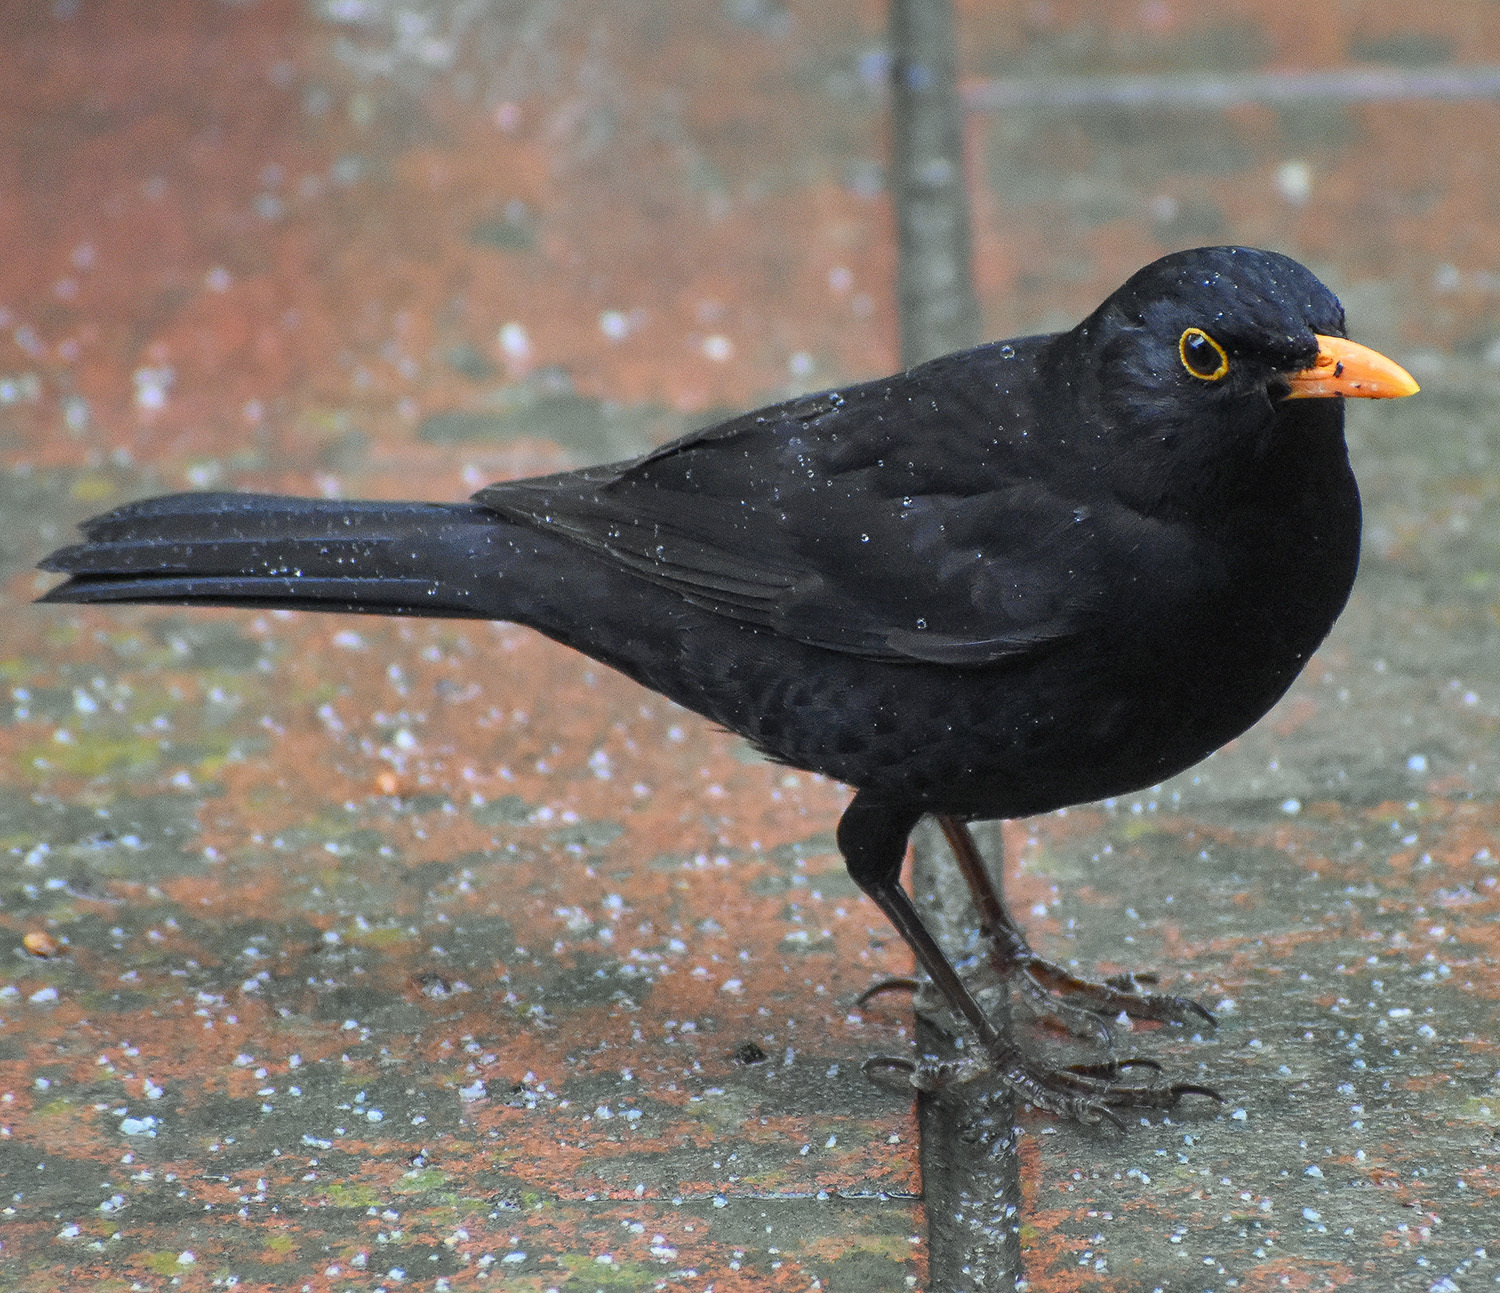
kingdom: Animalia
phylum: Chordata
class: Aves
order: Passeriformes
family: Turdidae
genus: Turdus
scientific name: Turdus merula
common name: Common blackbird
